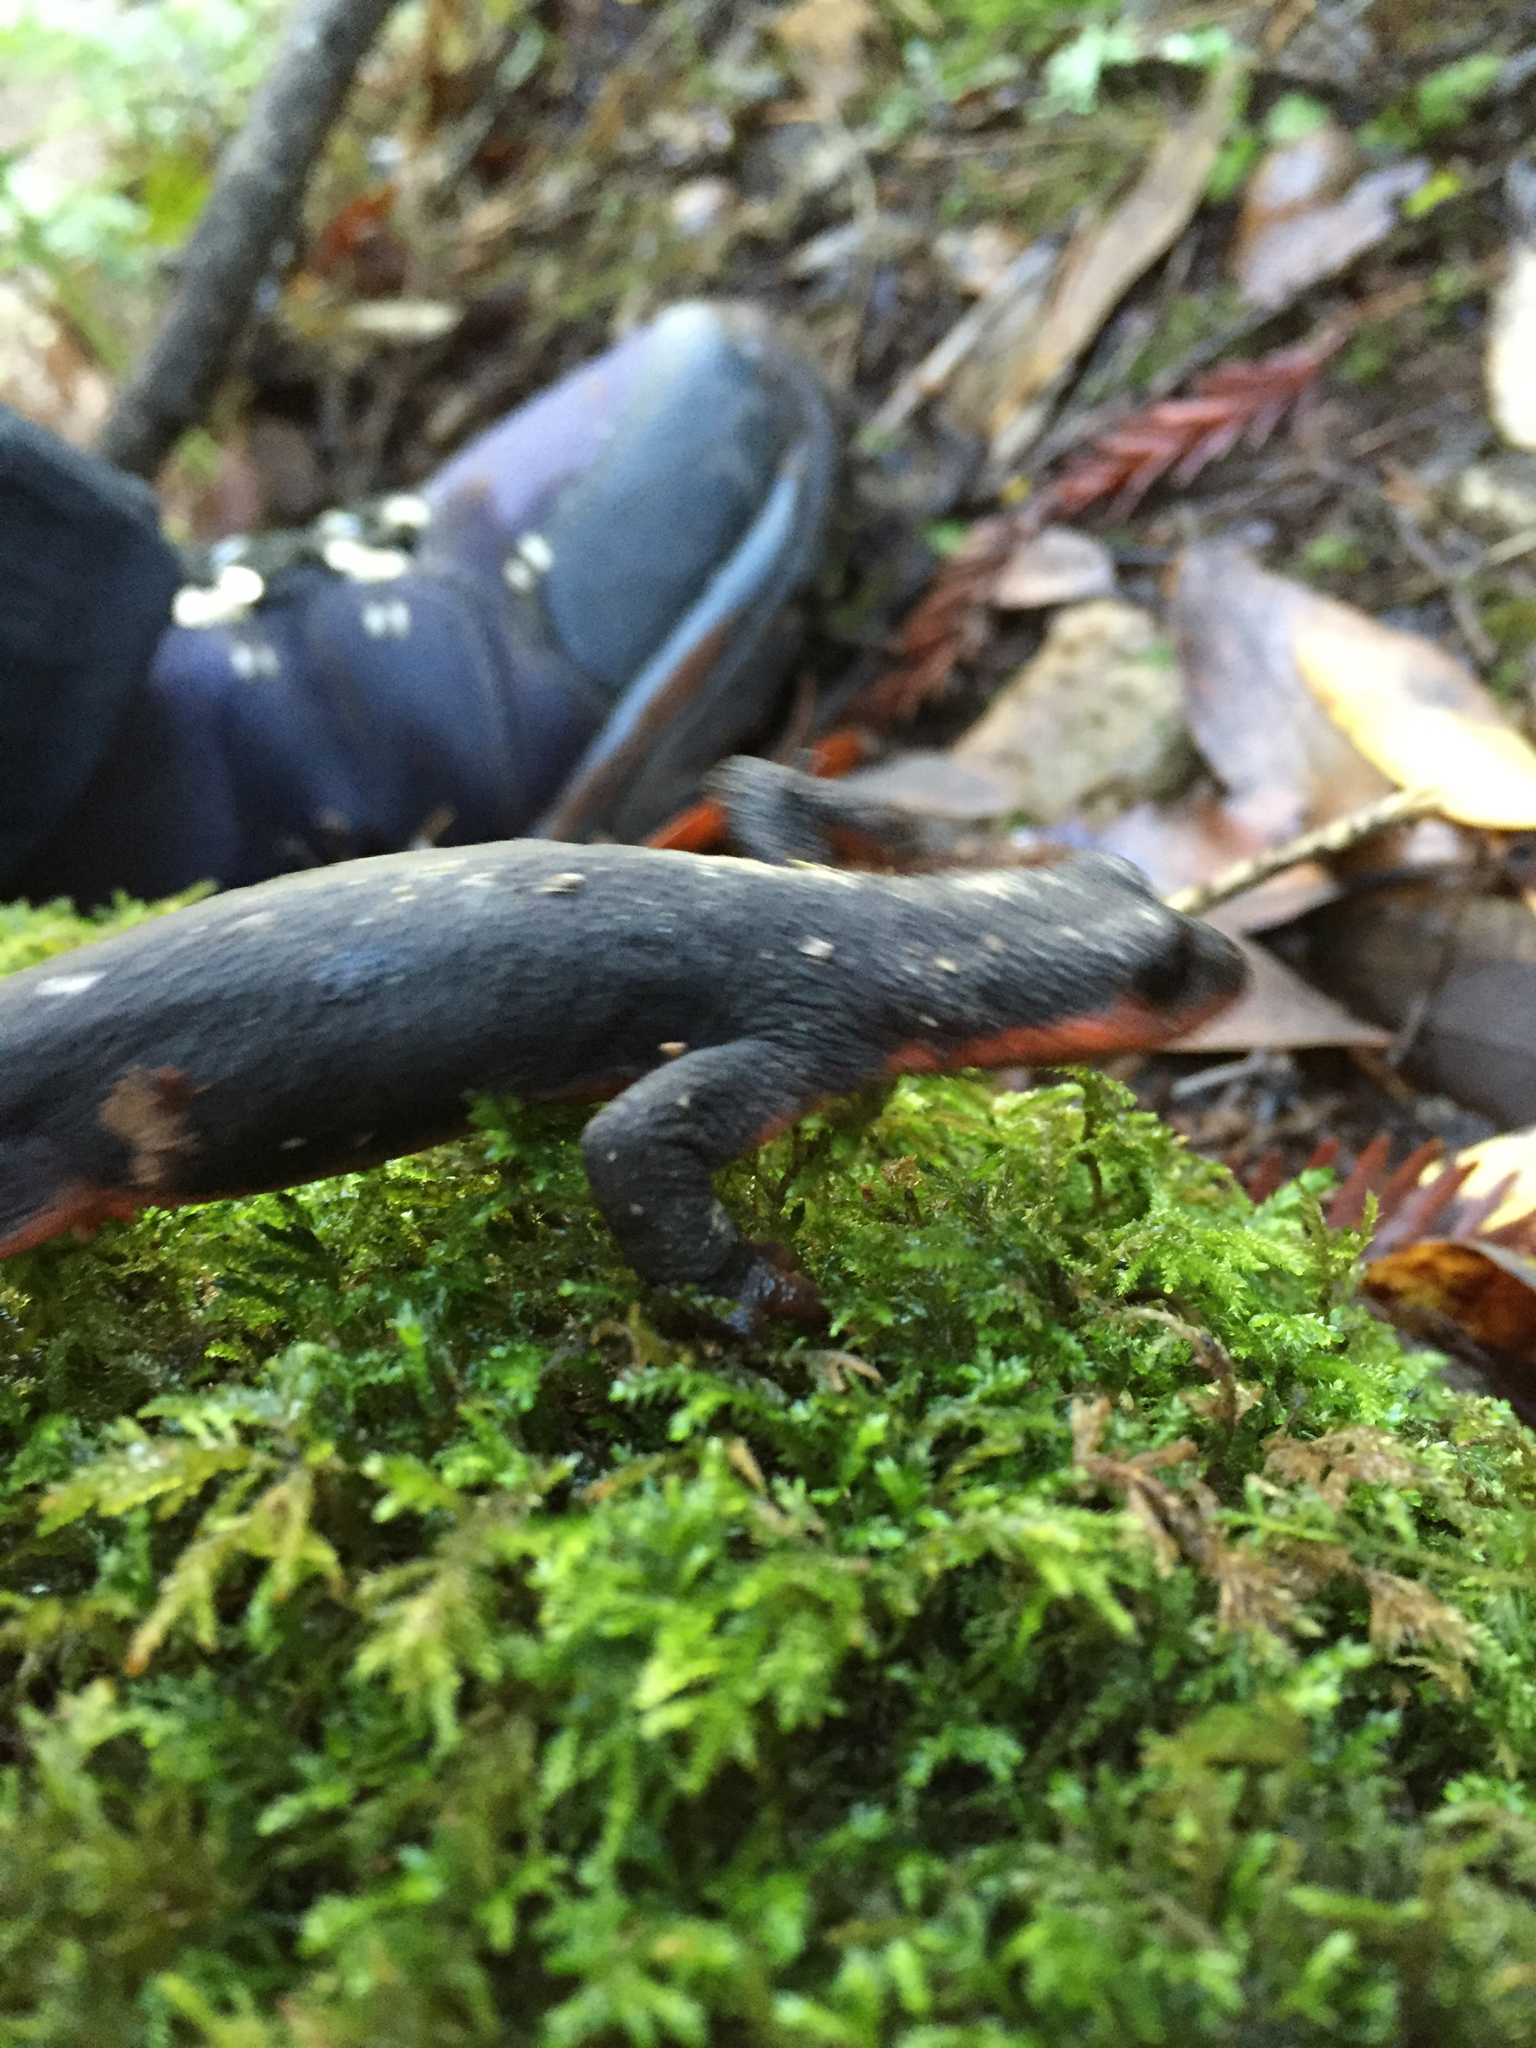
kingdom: Animalia
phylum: Chordata
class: Amphibia
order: Caudata
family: Salamandridae
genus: Taricha
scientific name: Taricha rivularis
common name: Red-bellied newt
